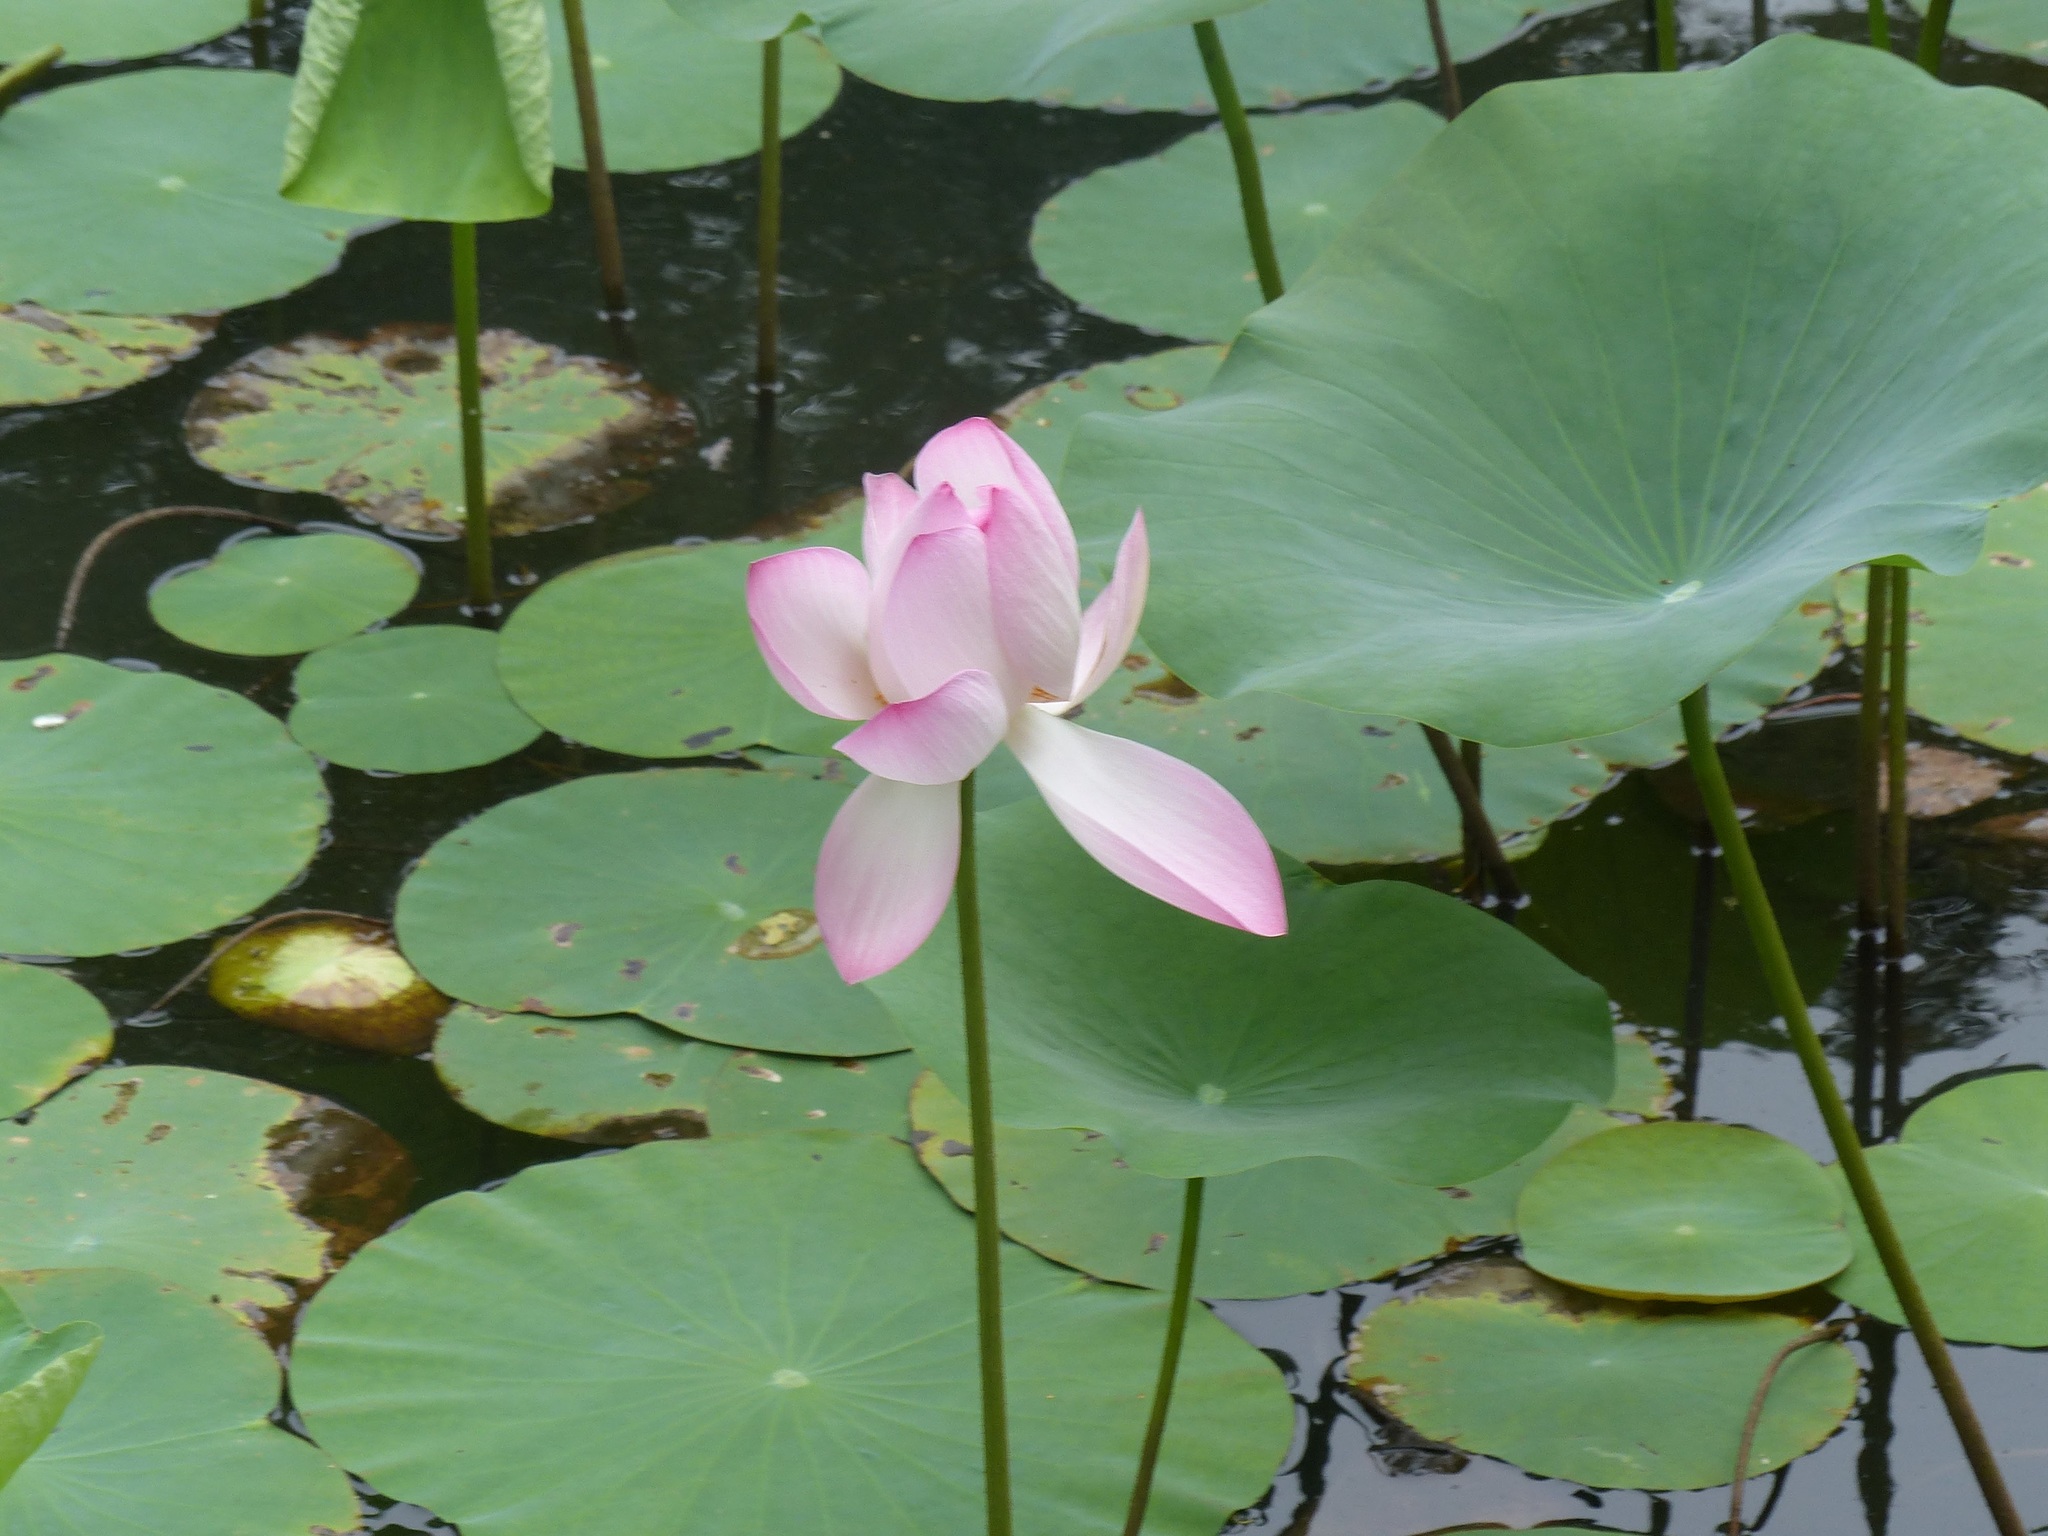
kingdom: Plantae
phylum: Tracheophyta
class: Magnoliopsida
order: Proteales
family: Nelumbonaceae
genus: Nelumbo
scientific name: Nelumbo nucifera
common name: Sacred lotus
